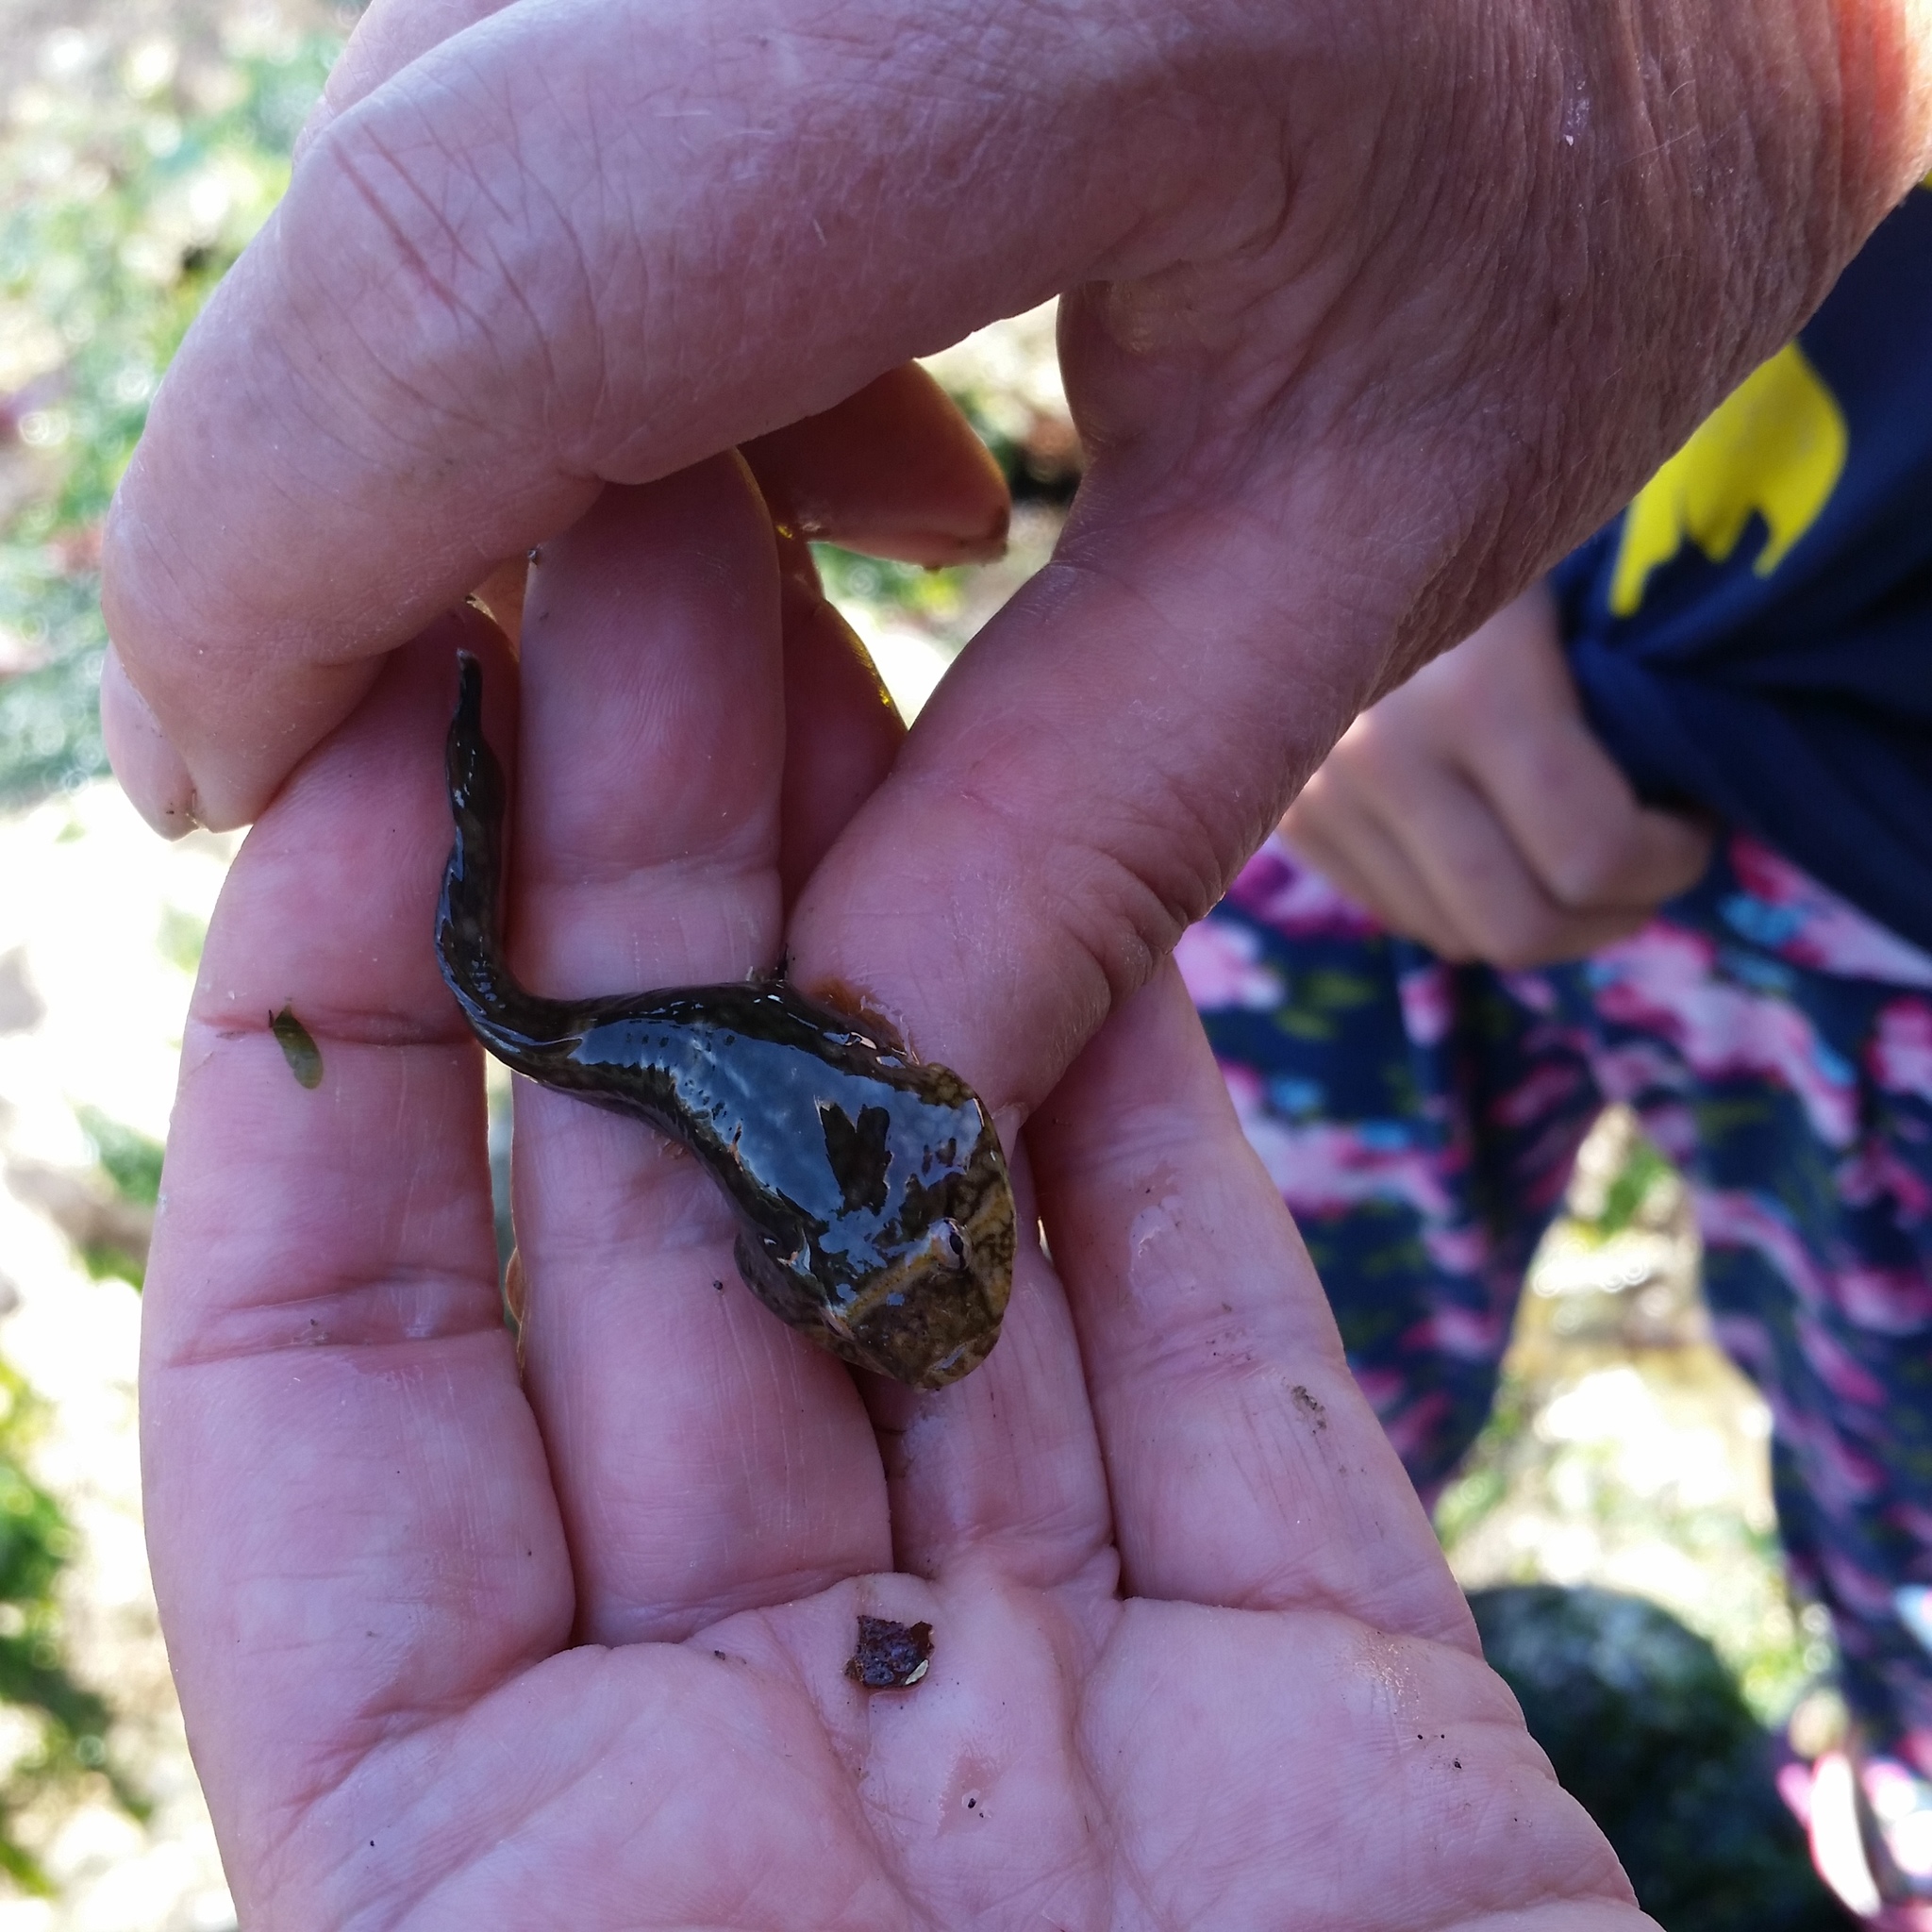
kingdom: Animalia
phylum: Chordata
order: Gobiesociformes
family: Gobiesocidae
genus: Gobiesox
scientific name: Gobiesox maeandricus
